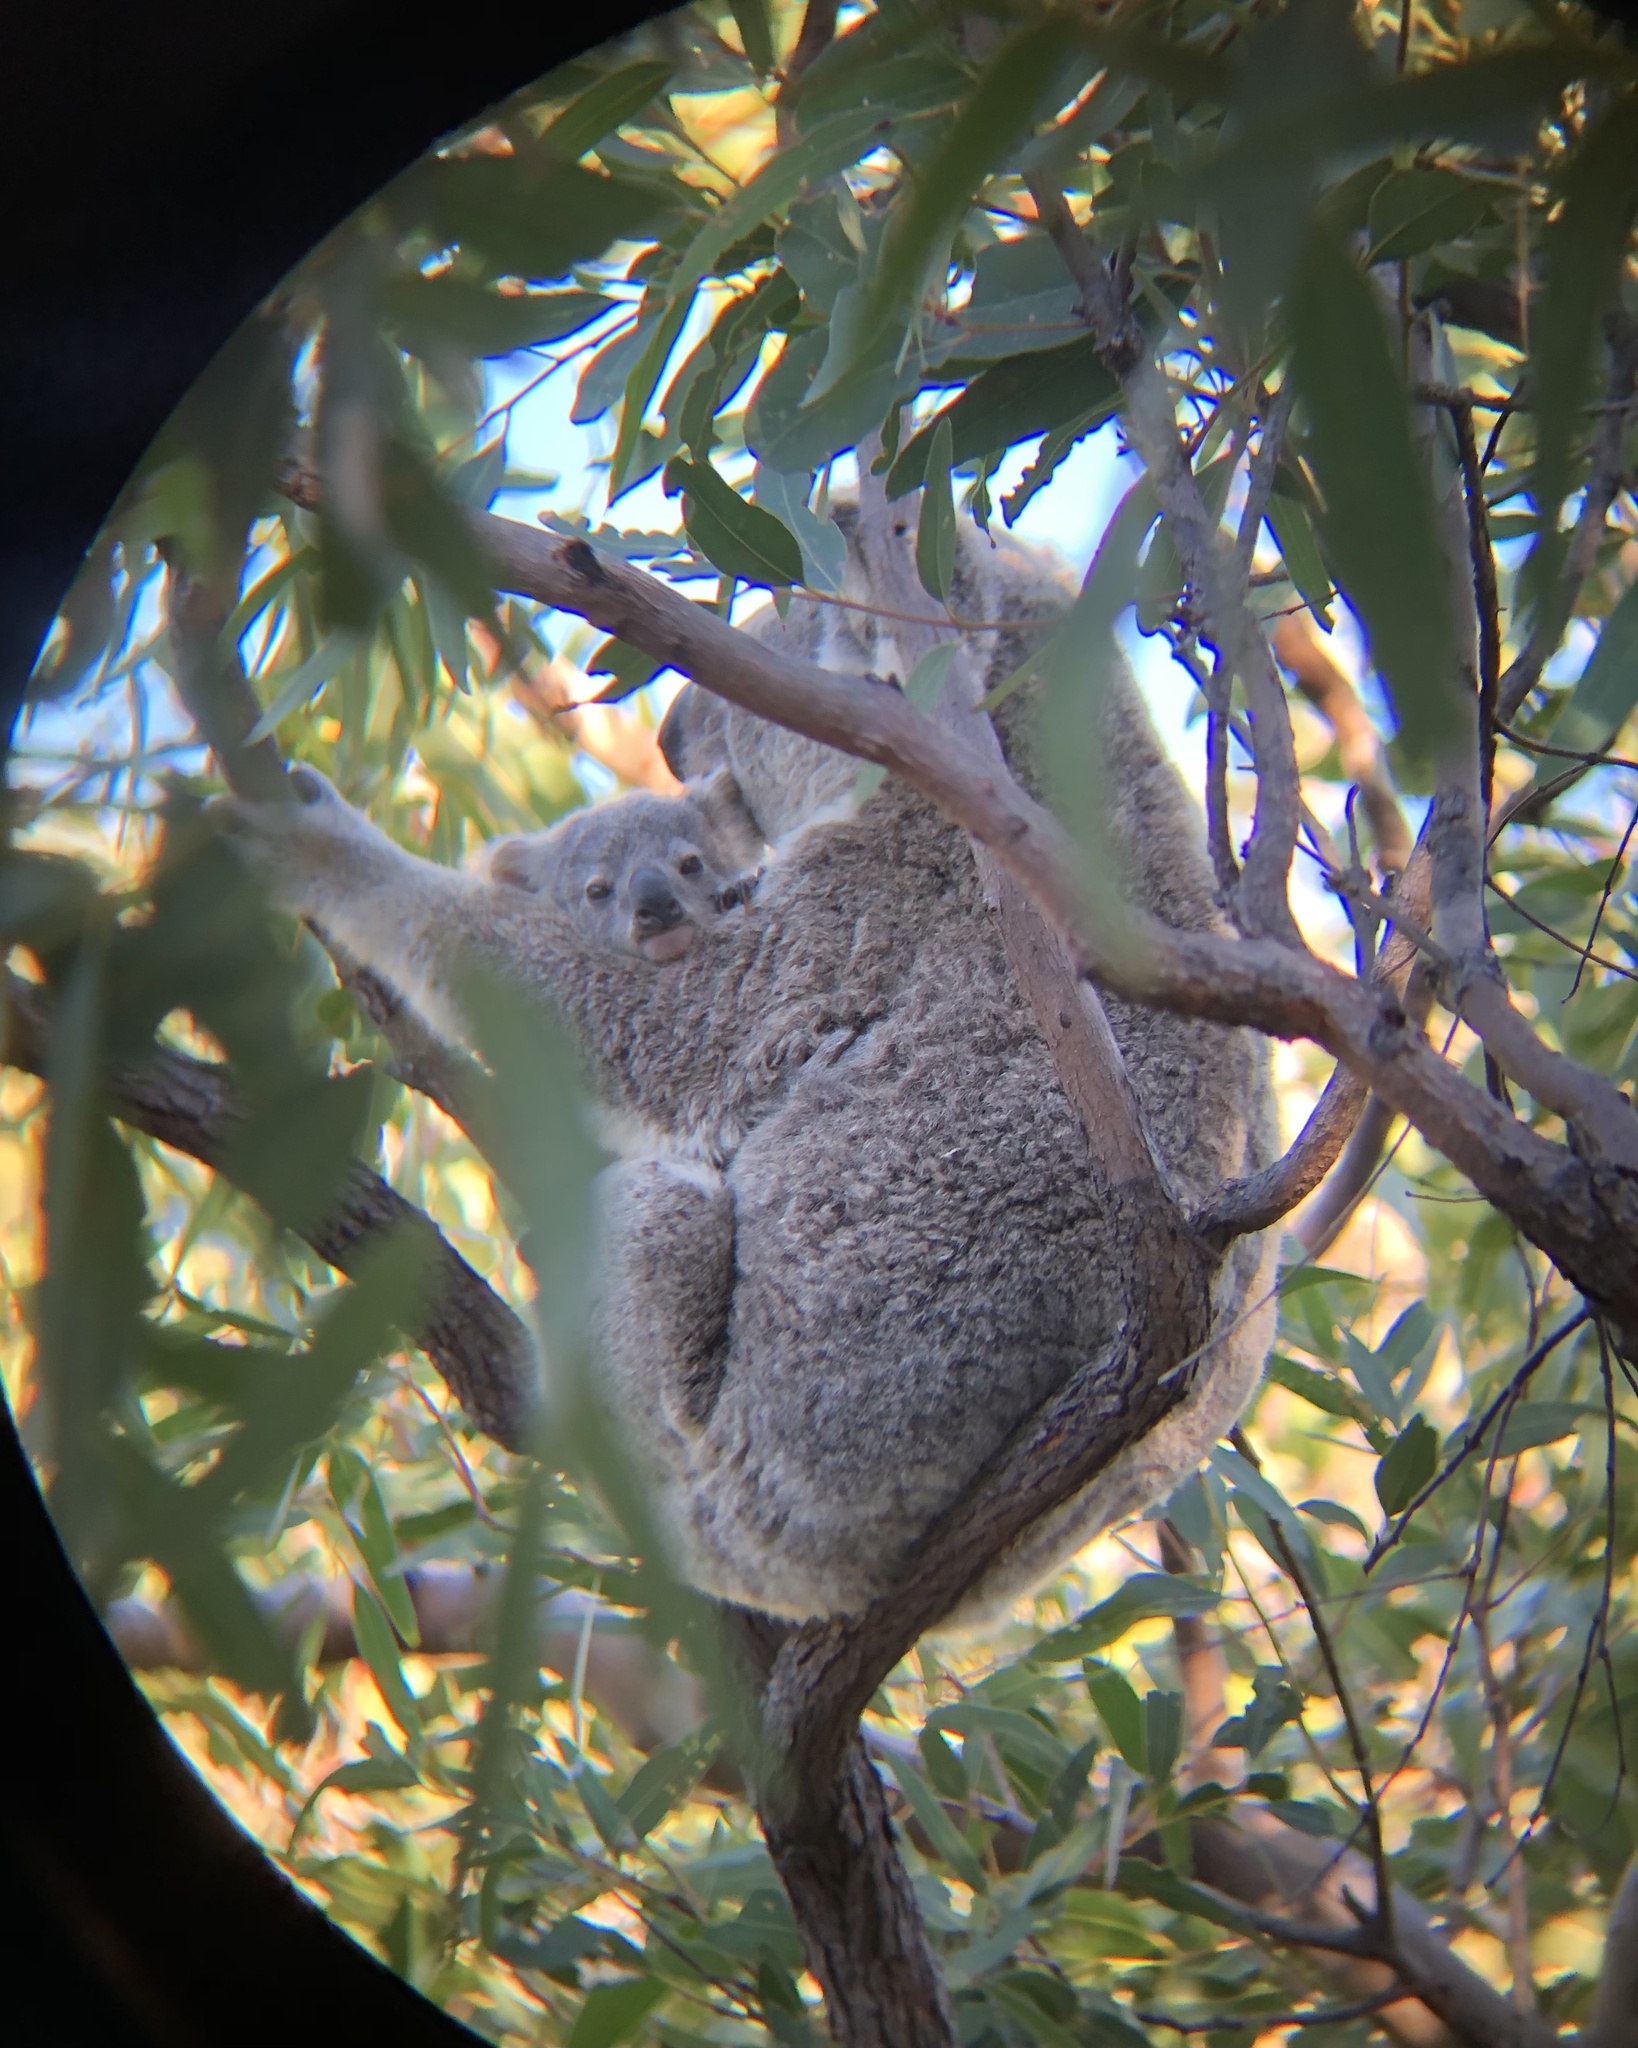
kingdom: Animalia
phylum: Chordata
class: Mammalia
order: Diprotodontia
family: Phascolarctidae
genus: Phascolarctos
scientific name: Phascolarctos cinereus
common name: Koala
